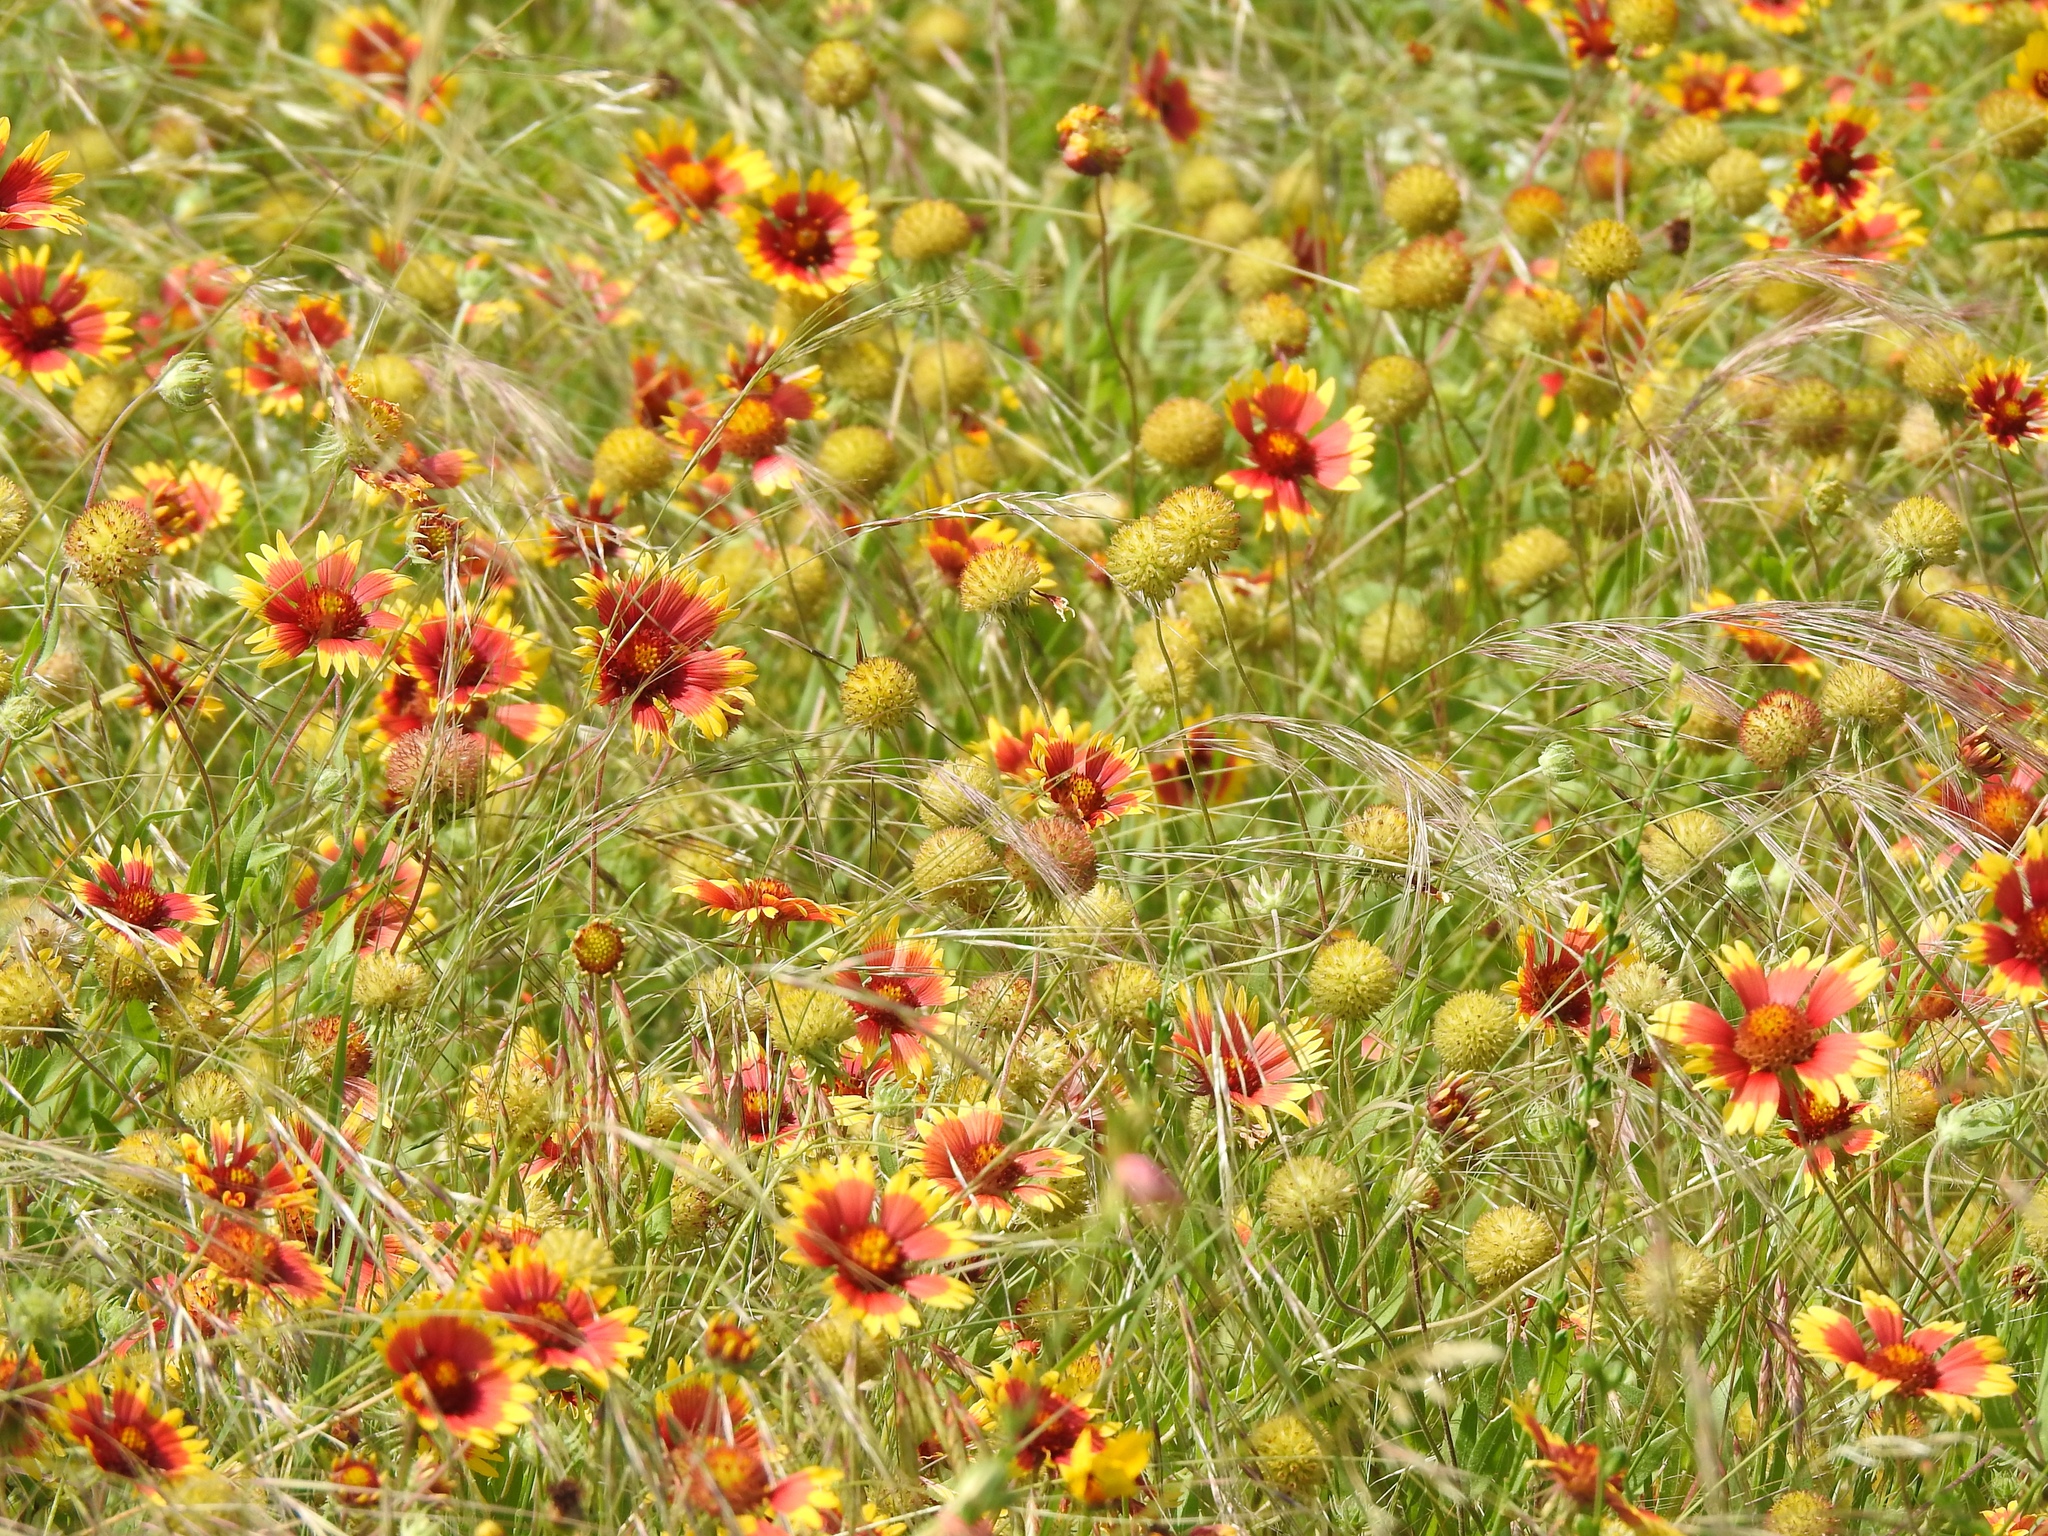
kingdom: Plantae
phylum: Tracheophyta
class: Magnoliopsida
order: Asterales
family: Asteraceae
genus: Gaillardia
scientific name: Gaillardia pulchella
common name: Firewheel
